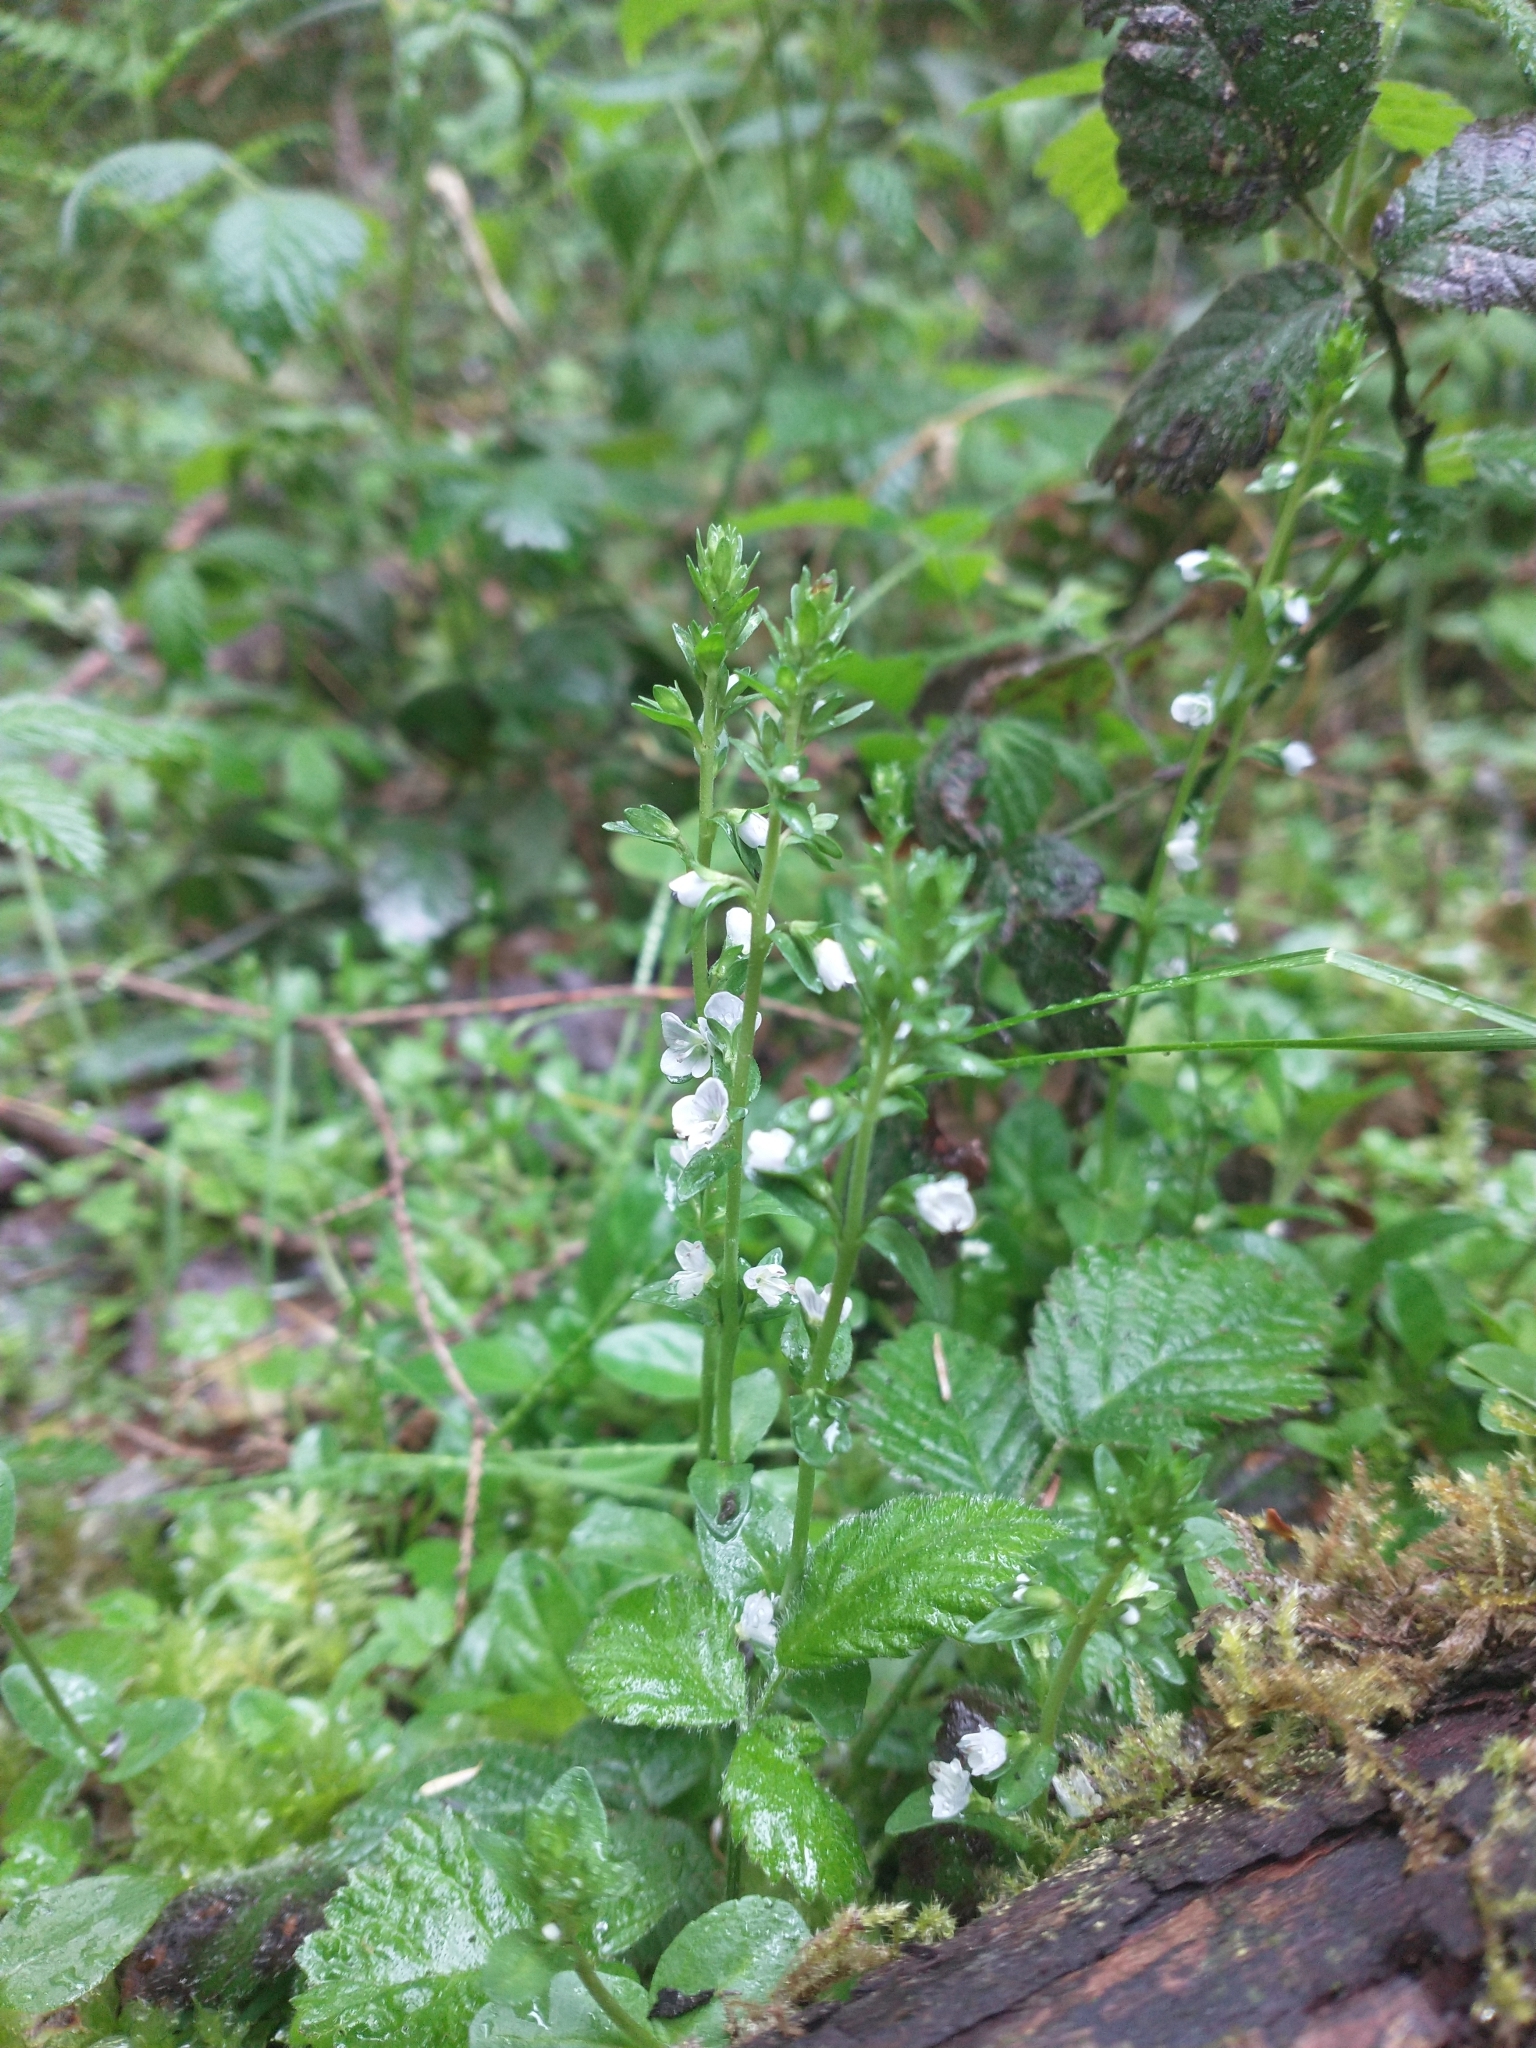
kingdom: Plantae
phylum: Tracheophyta
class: Magnoliopsida
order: Lamiales
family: Plantaginaceae
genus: Veronica
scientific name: Veronica serpyllifolia
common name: Thyme-leaved speedwell
